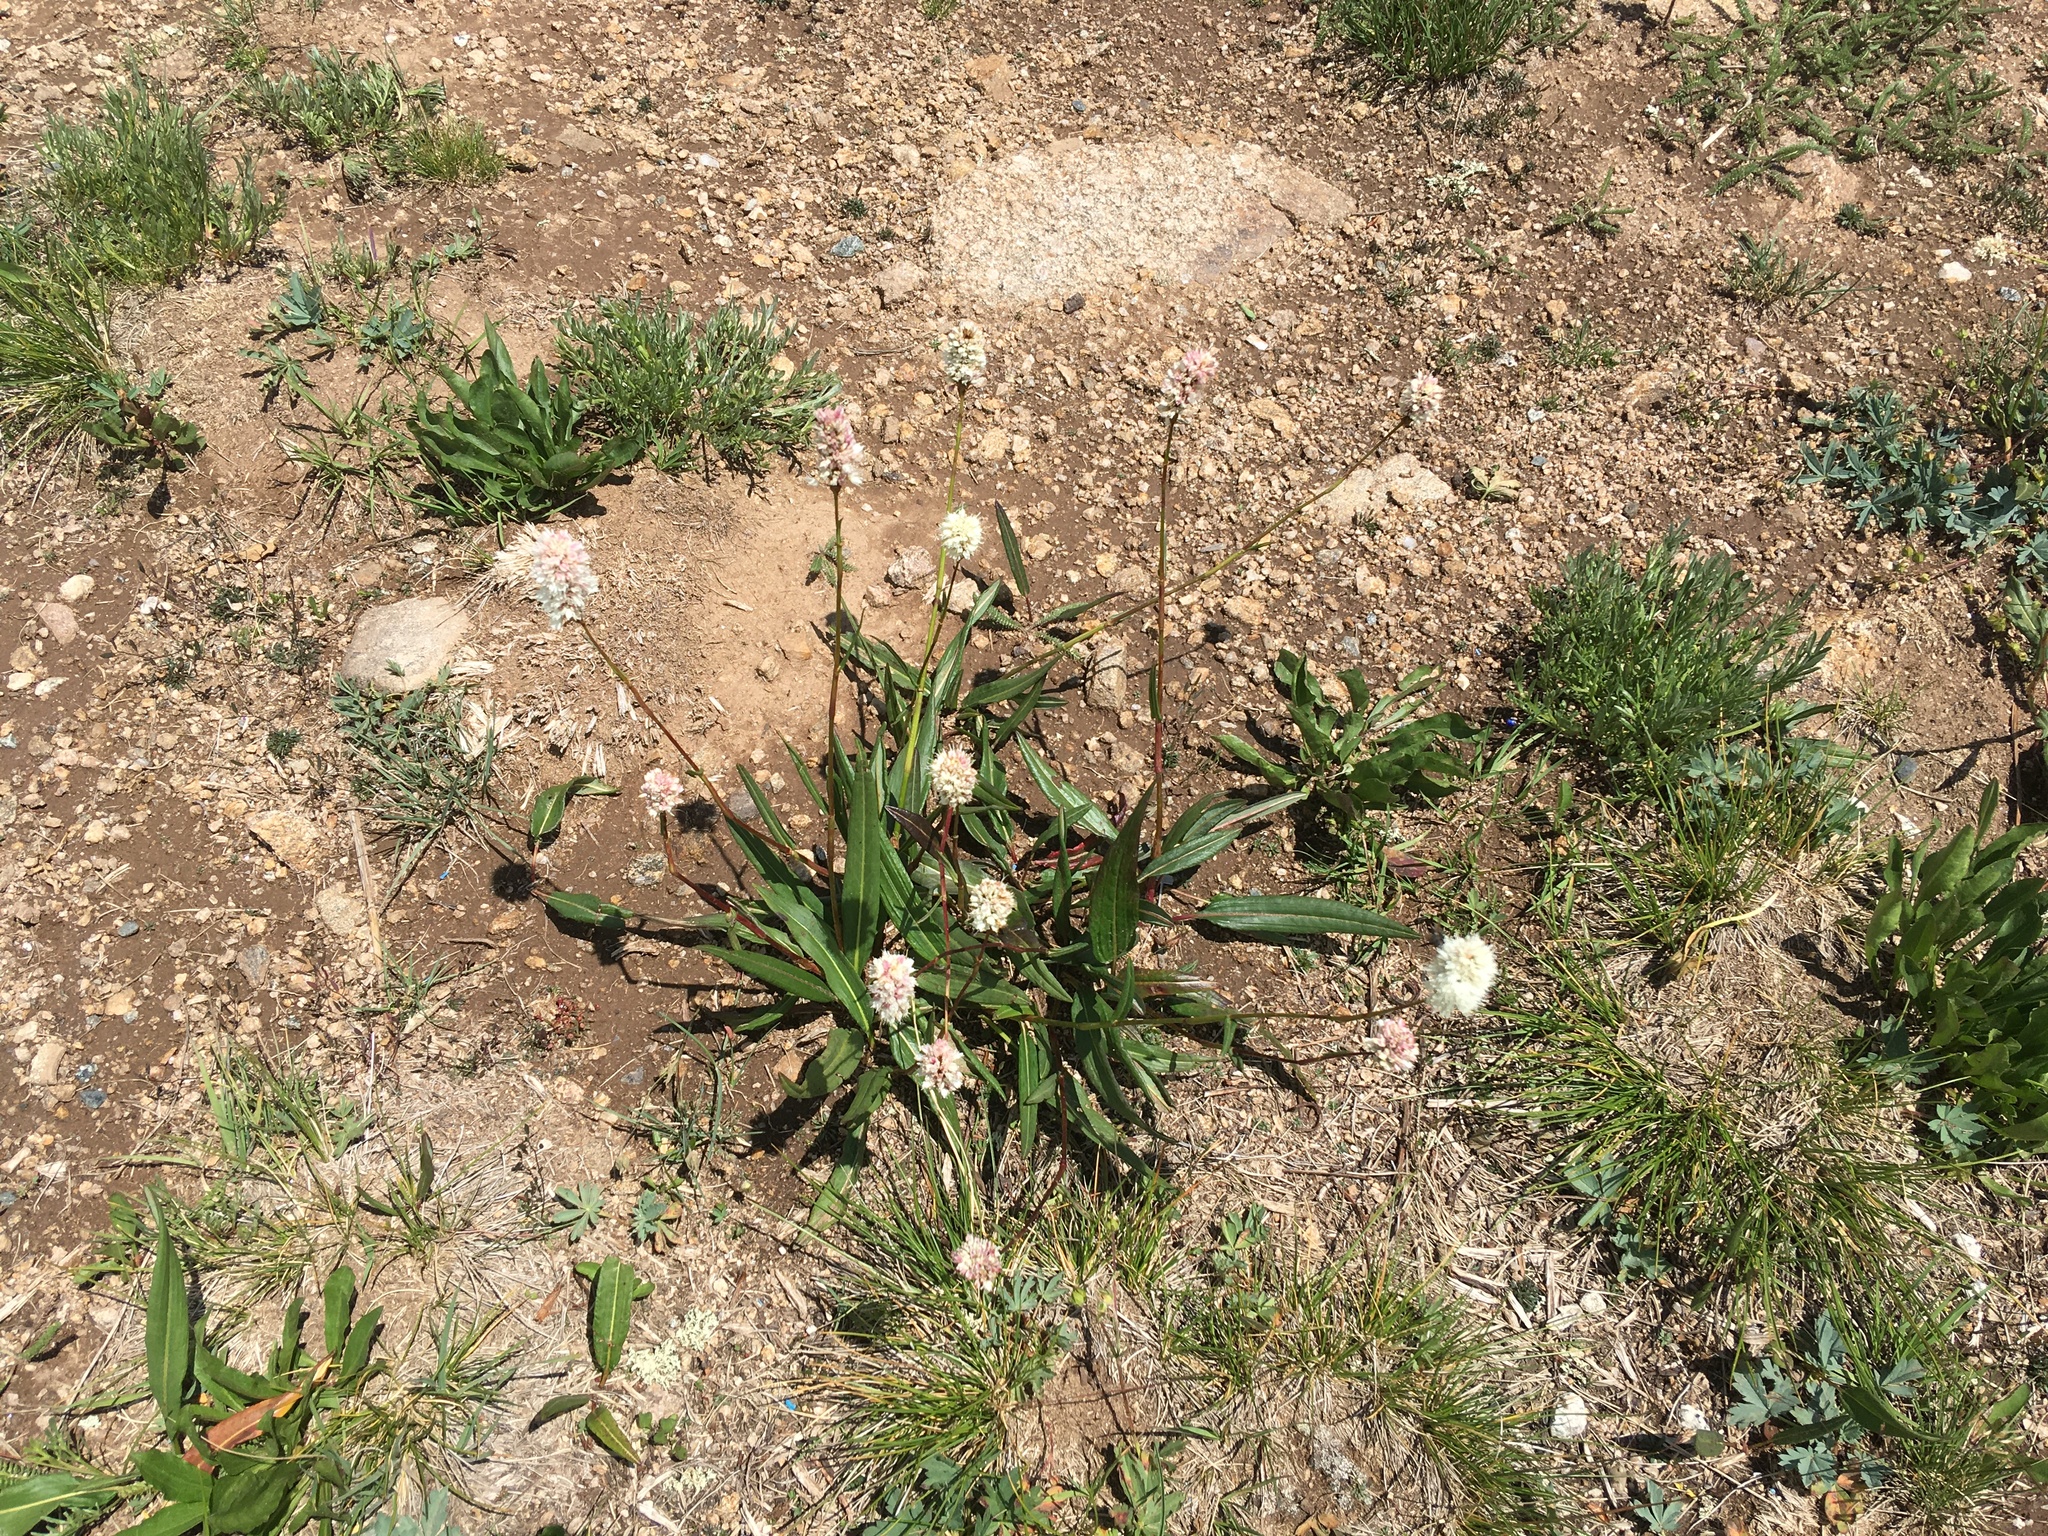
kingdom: Plantae
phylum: Tracheophyta
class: Magnoliopsida
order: Caryophyllales
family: Polygonaceae
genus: Bistorta
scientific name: Bistorta bistortoides
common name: American bistort
